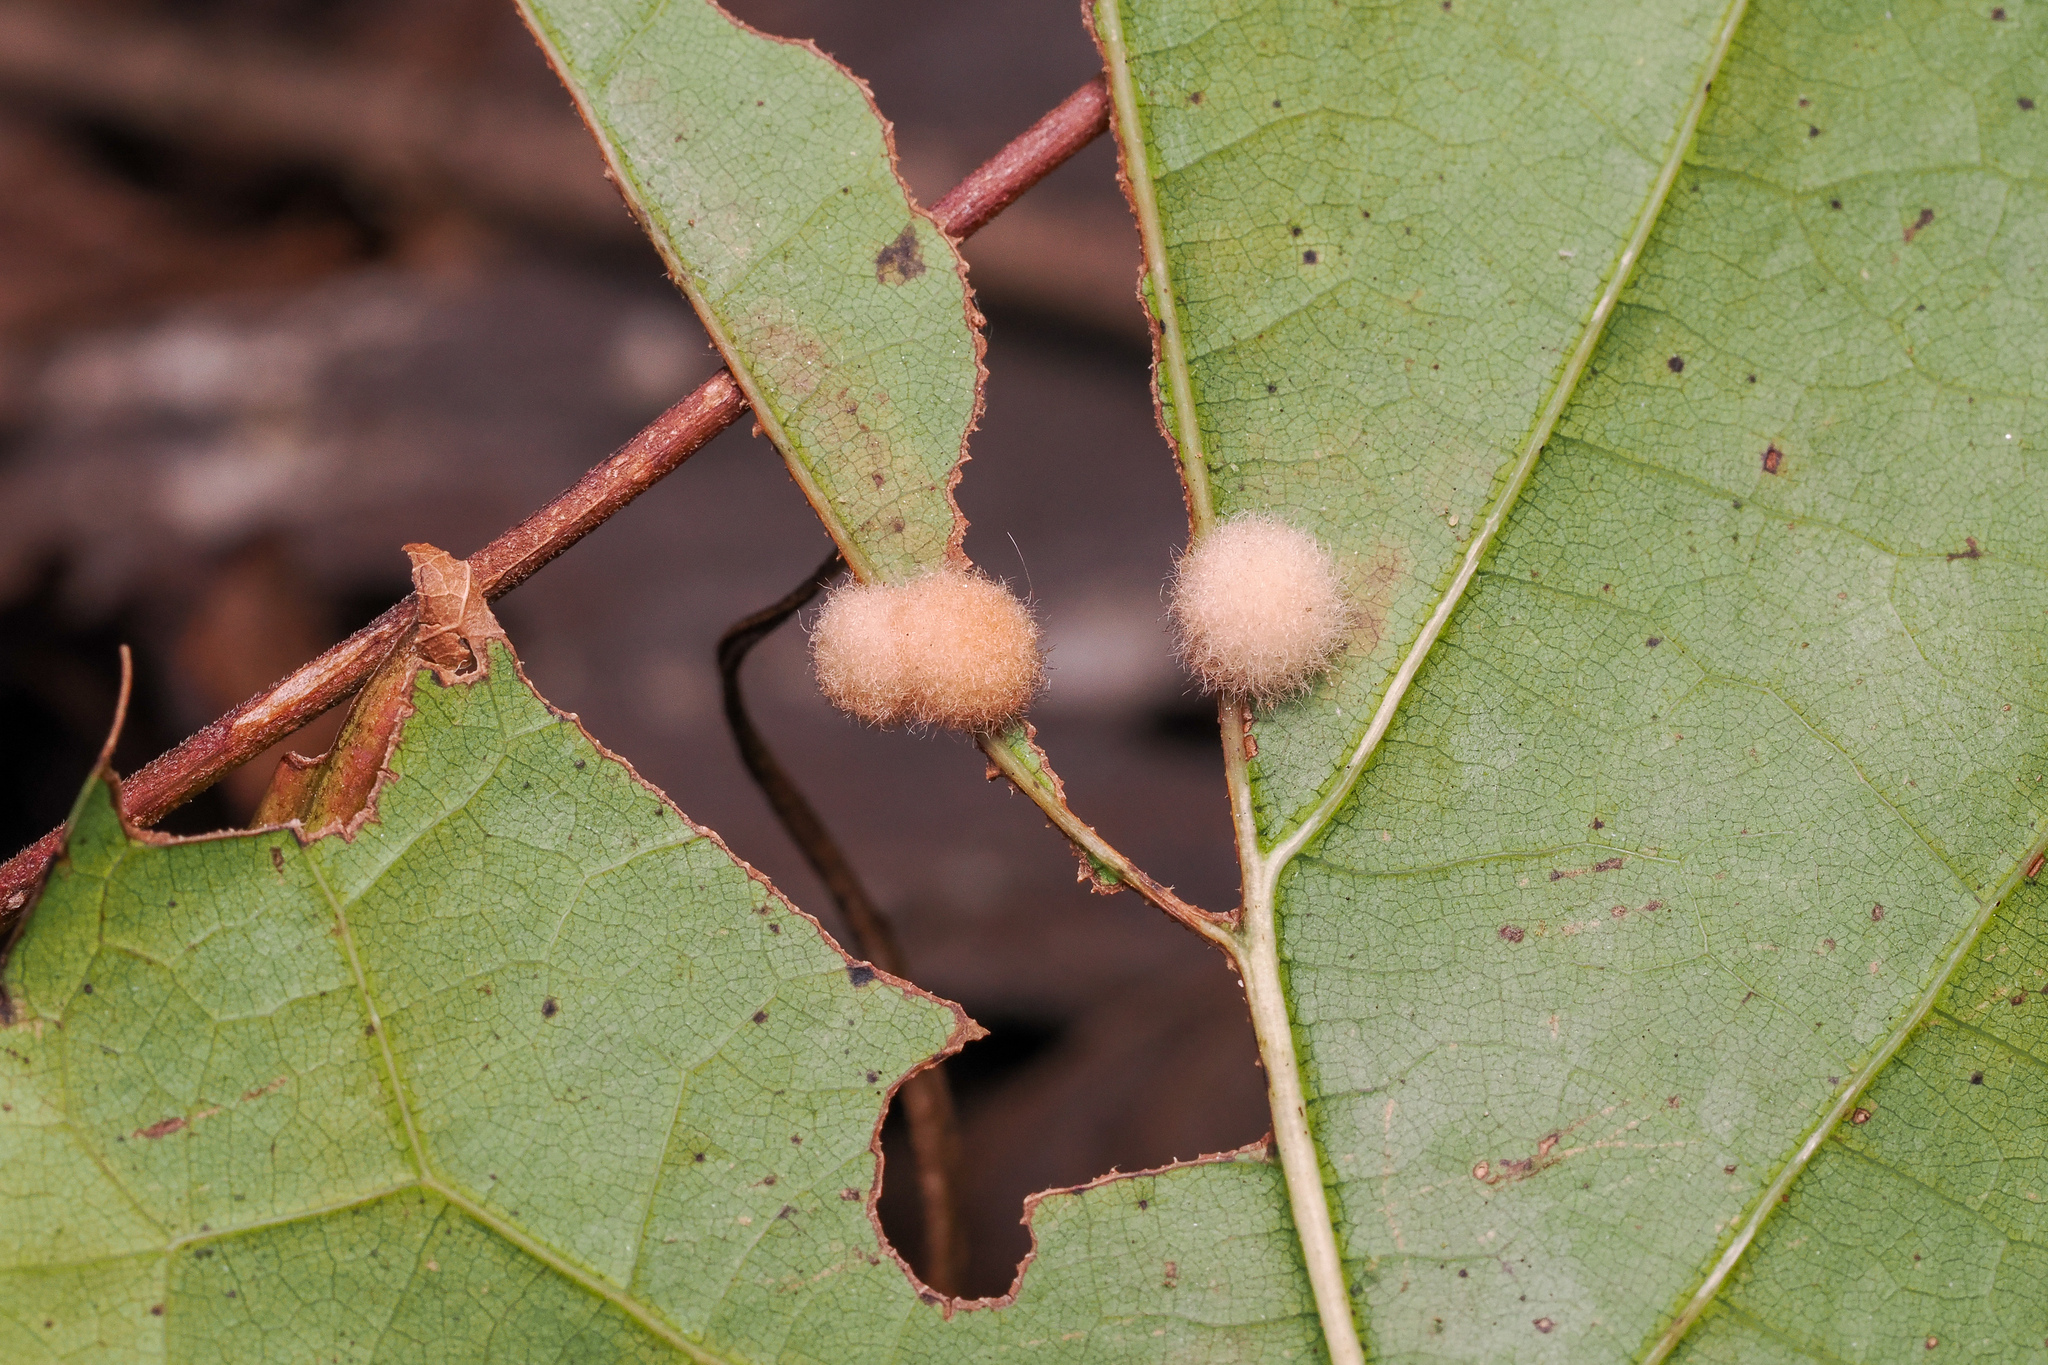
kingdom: Animalia
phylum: Arthropoda
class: Insecta
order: Hymenoptera
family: Cynipidae
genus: Callirhytis
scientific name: Callirhytis
